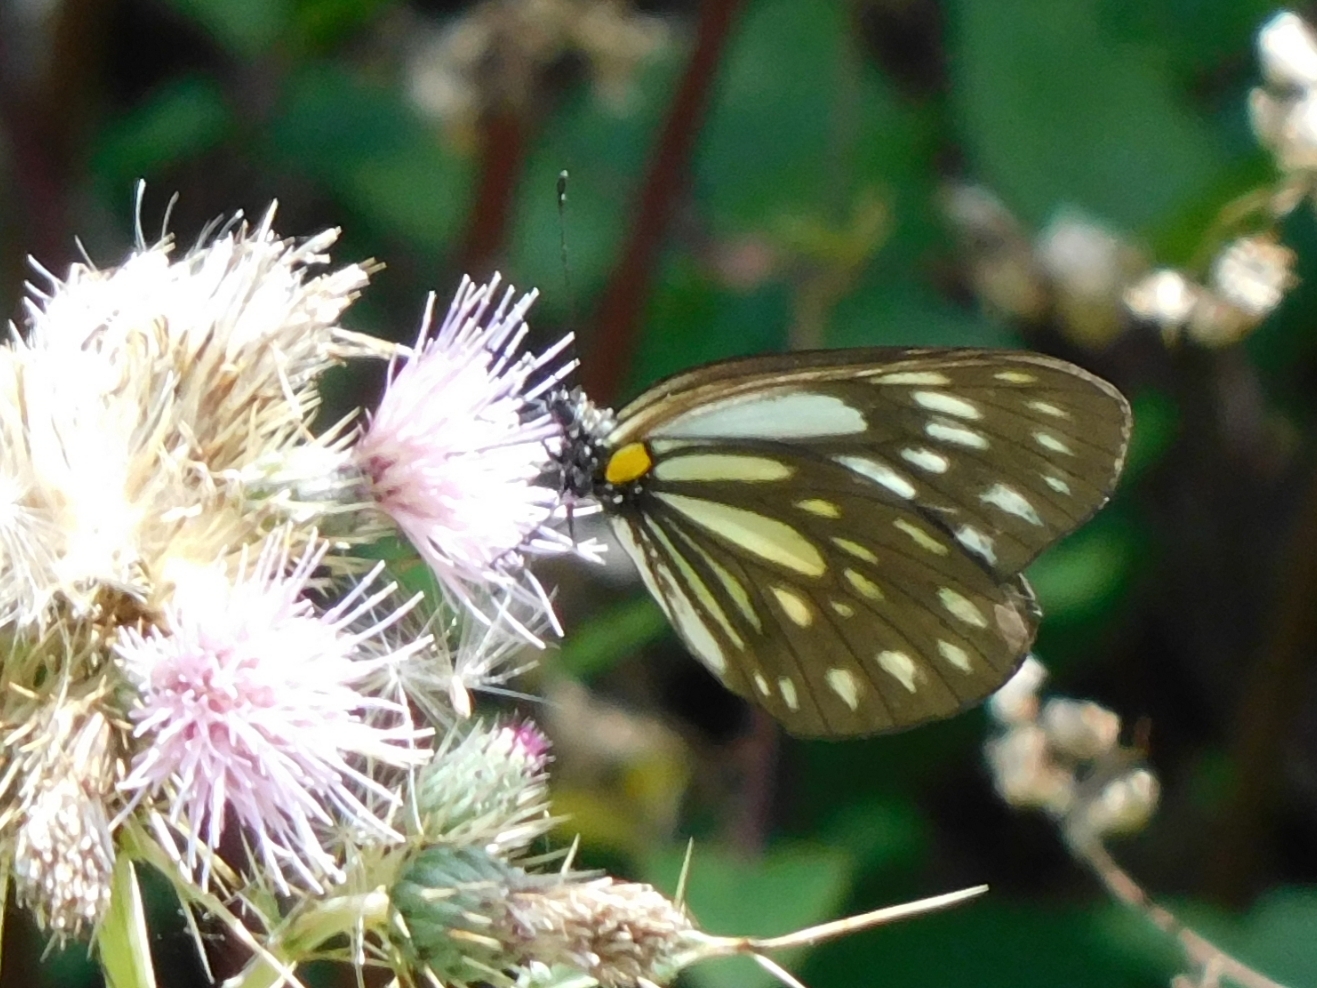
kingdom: Animalia
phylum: Arthropoda
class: Insecta
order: Lepidoptera
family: Pieridae
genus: Aporia
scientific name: Aporia agathon
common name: Great blackvein
